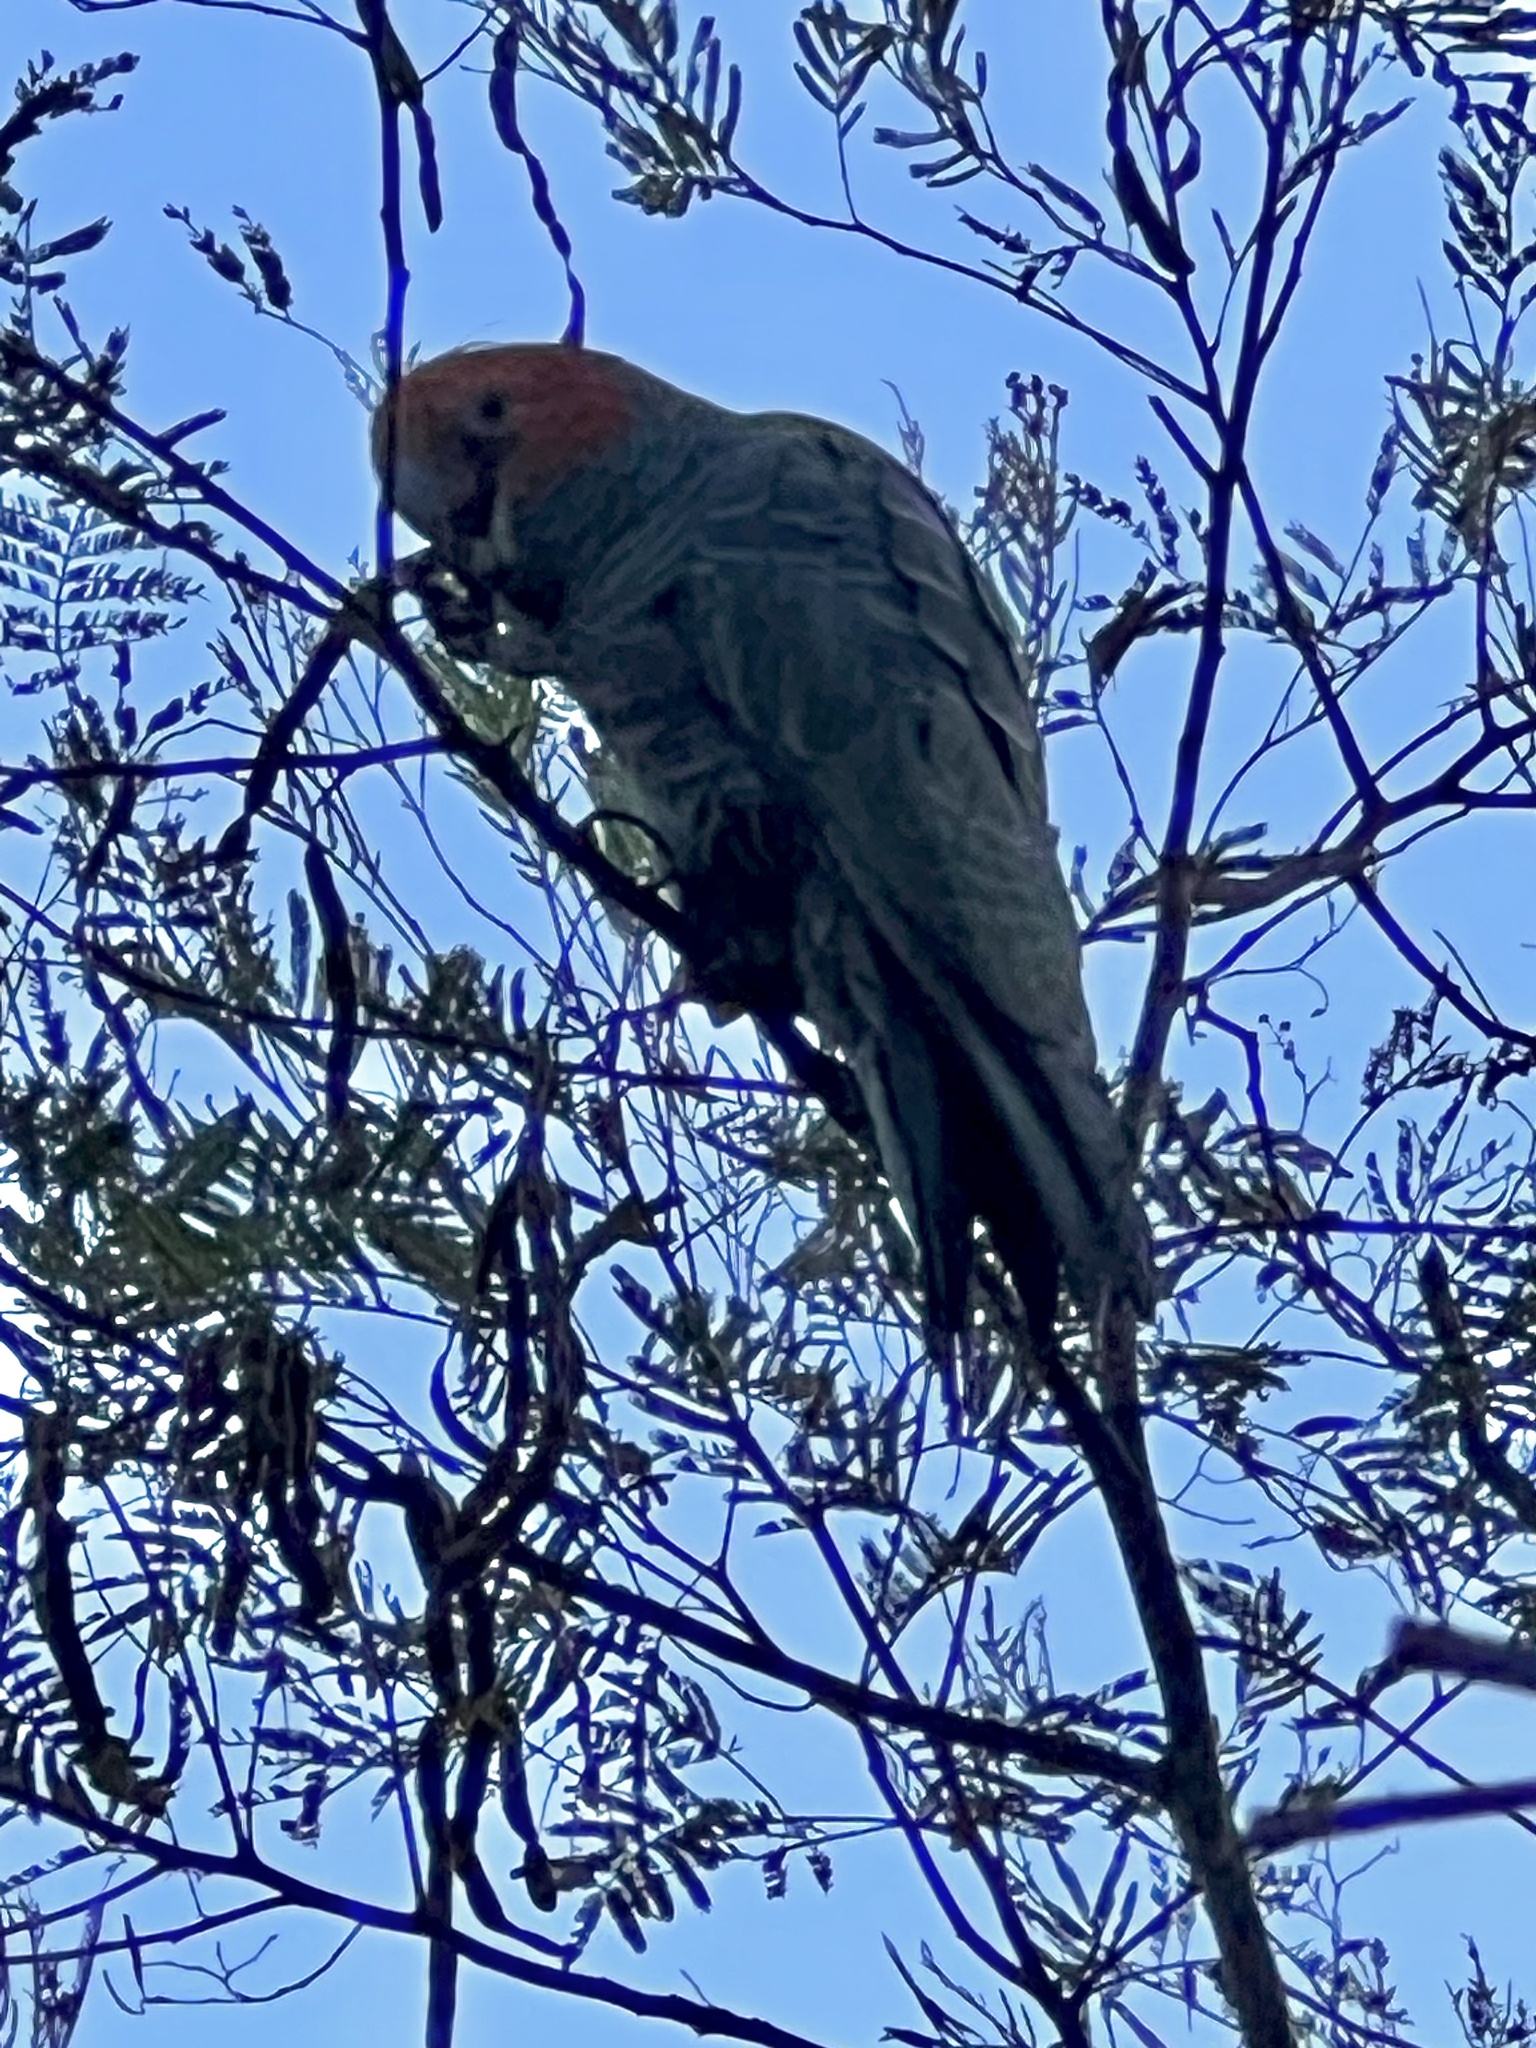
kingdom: Animalia
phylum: Chordata
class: Aves
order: Psittaciformes
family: Psittacidae
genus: Callocephalon
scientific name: Callocephalon fimbriatum
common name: Gang-gang cockatoo
